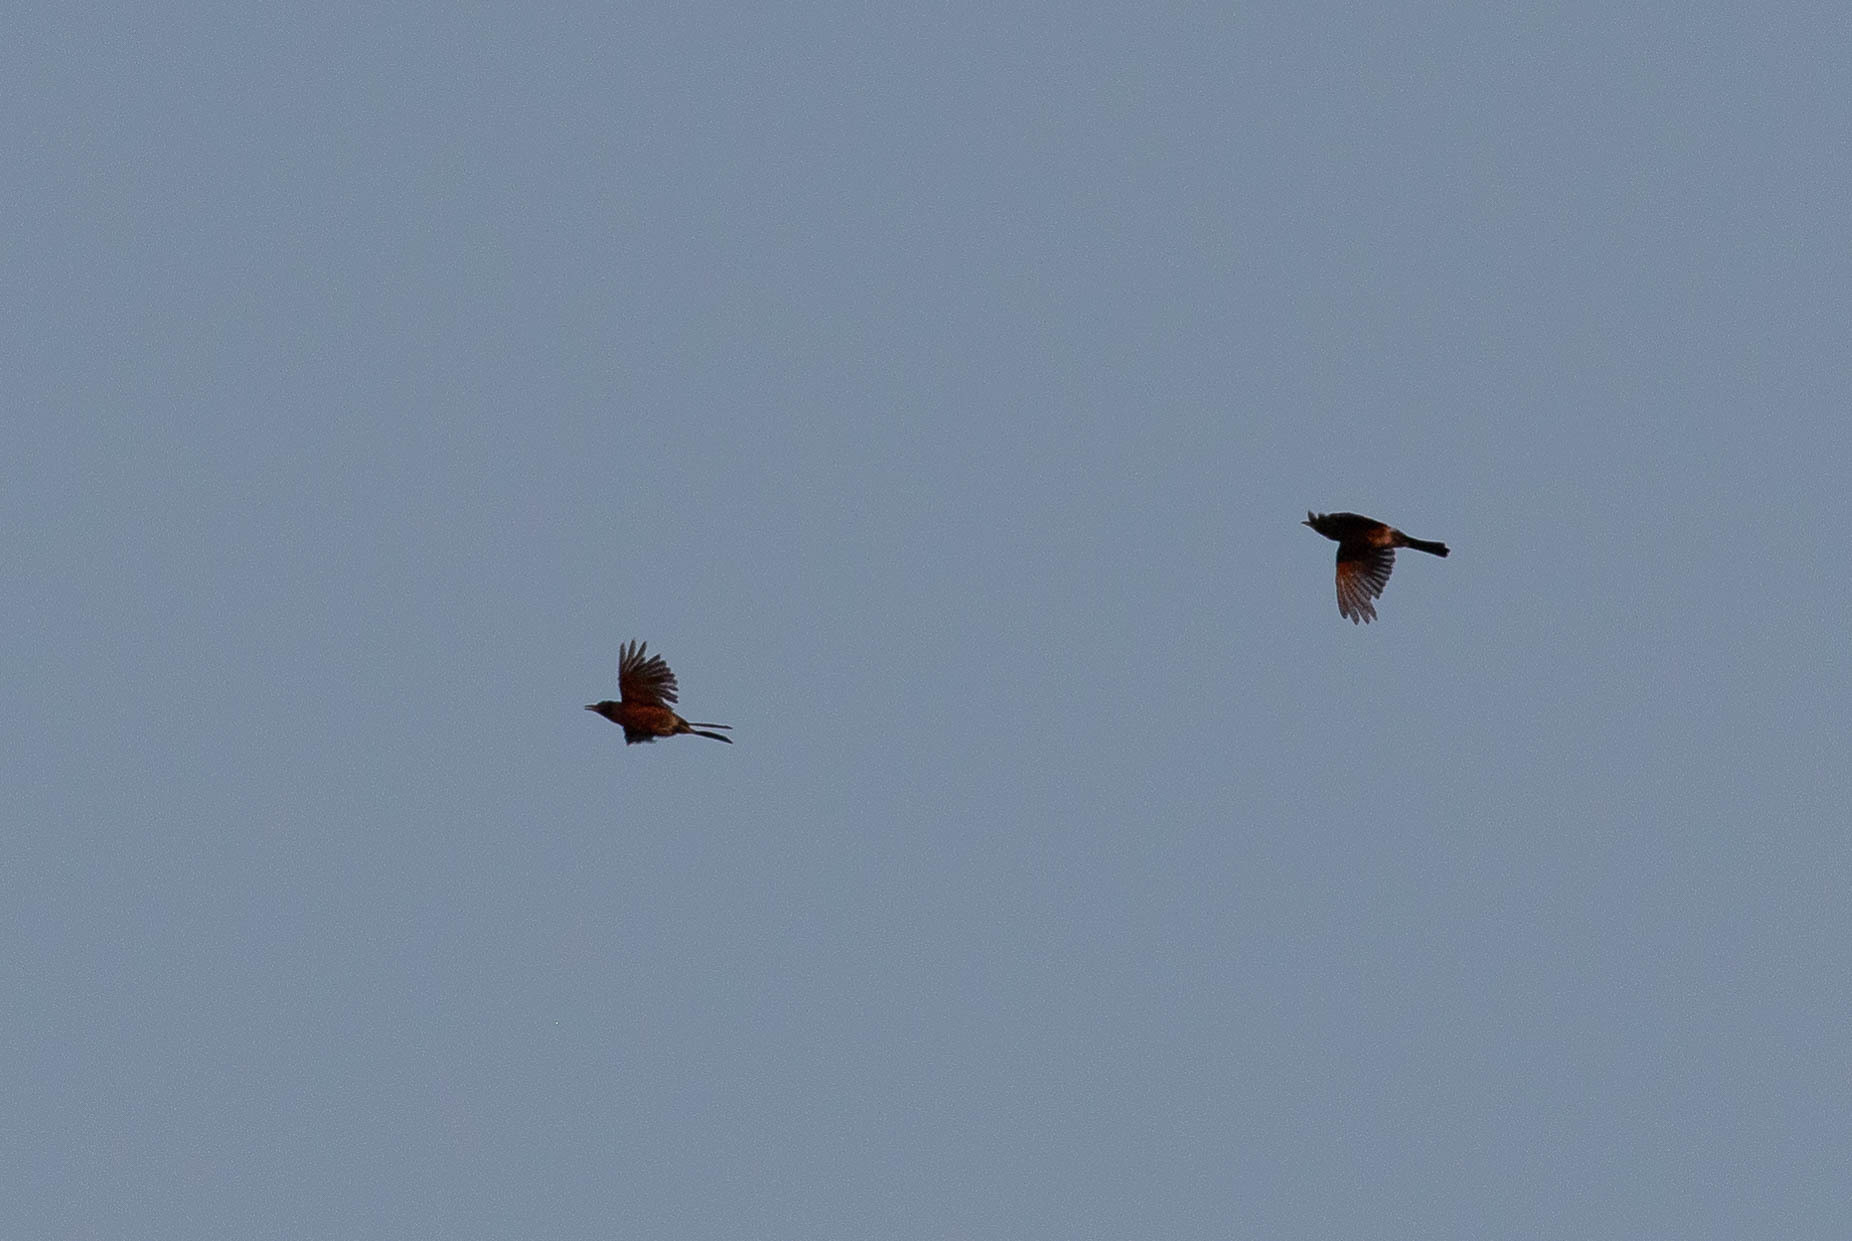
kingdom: Animalia
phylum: Chordata
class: Aves
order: Passeriformes
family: Turdidae
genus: Turdus
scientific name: Turdus migratorius
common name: American robin
